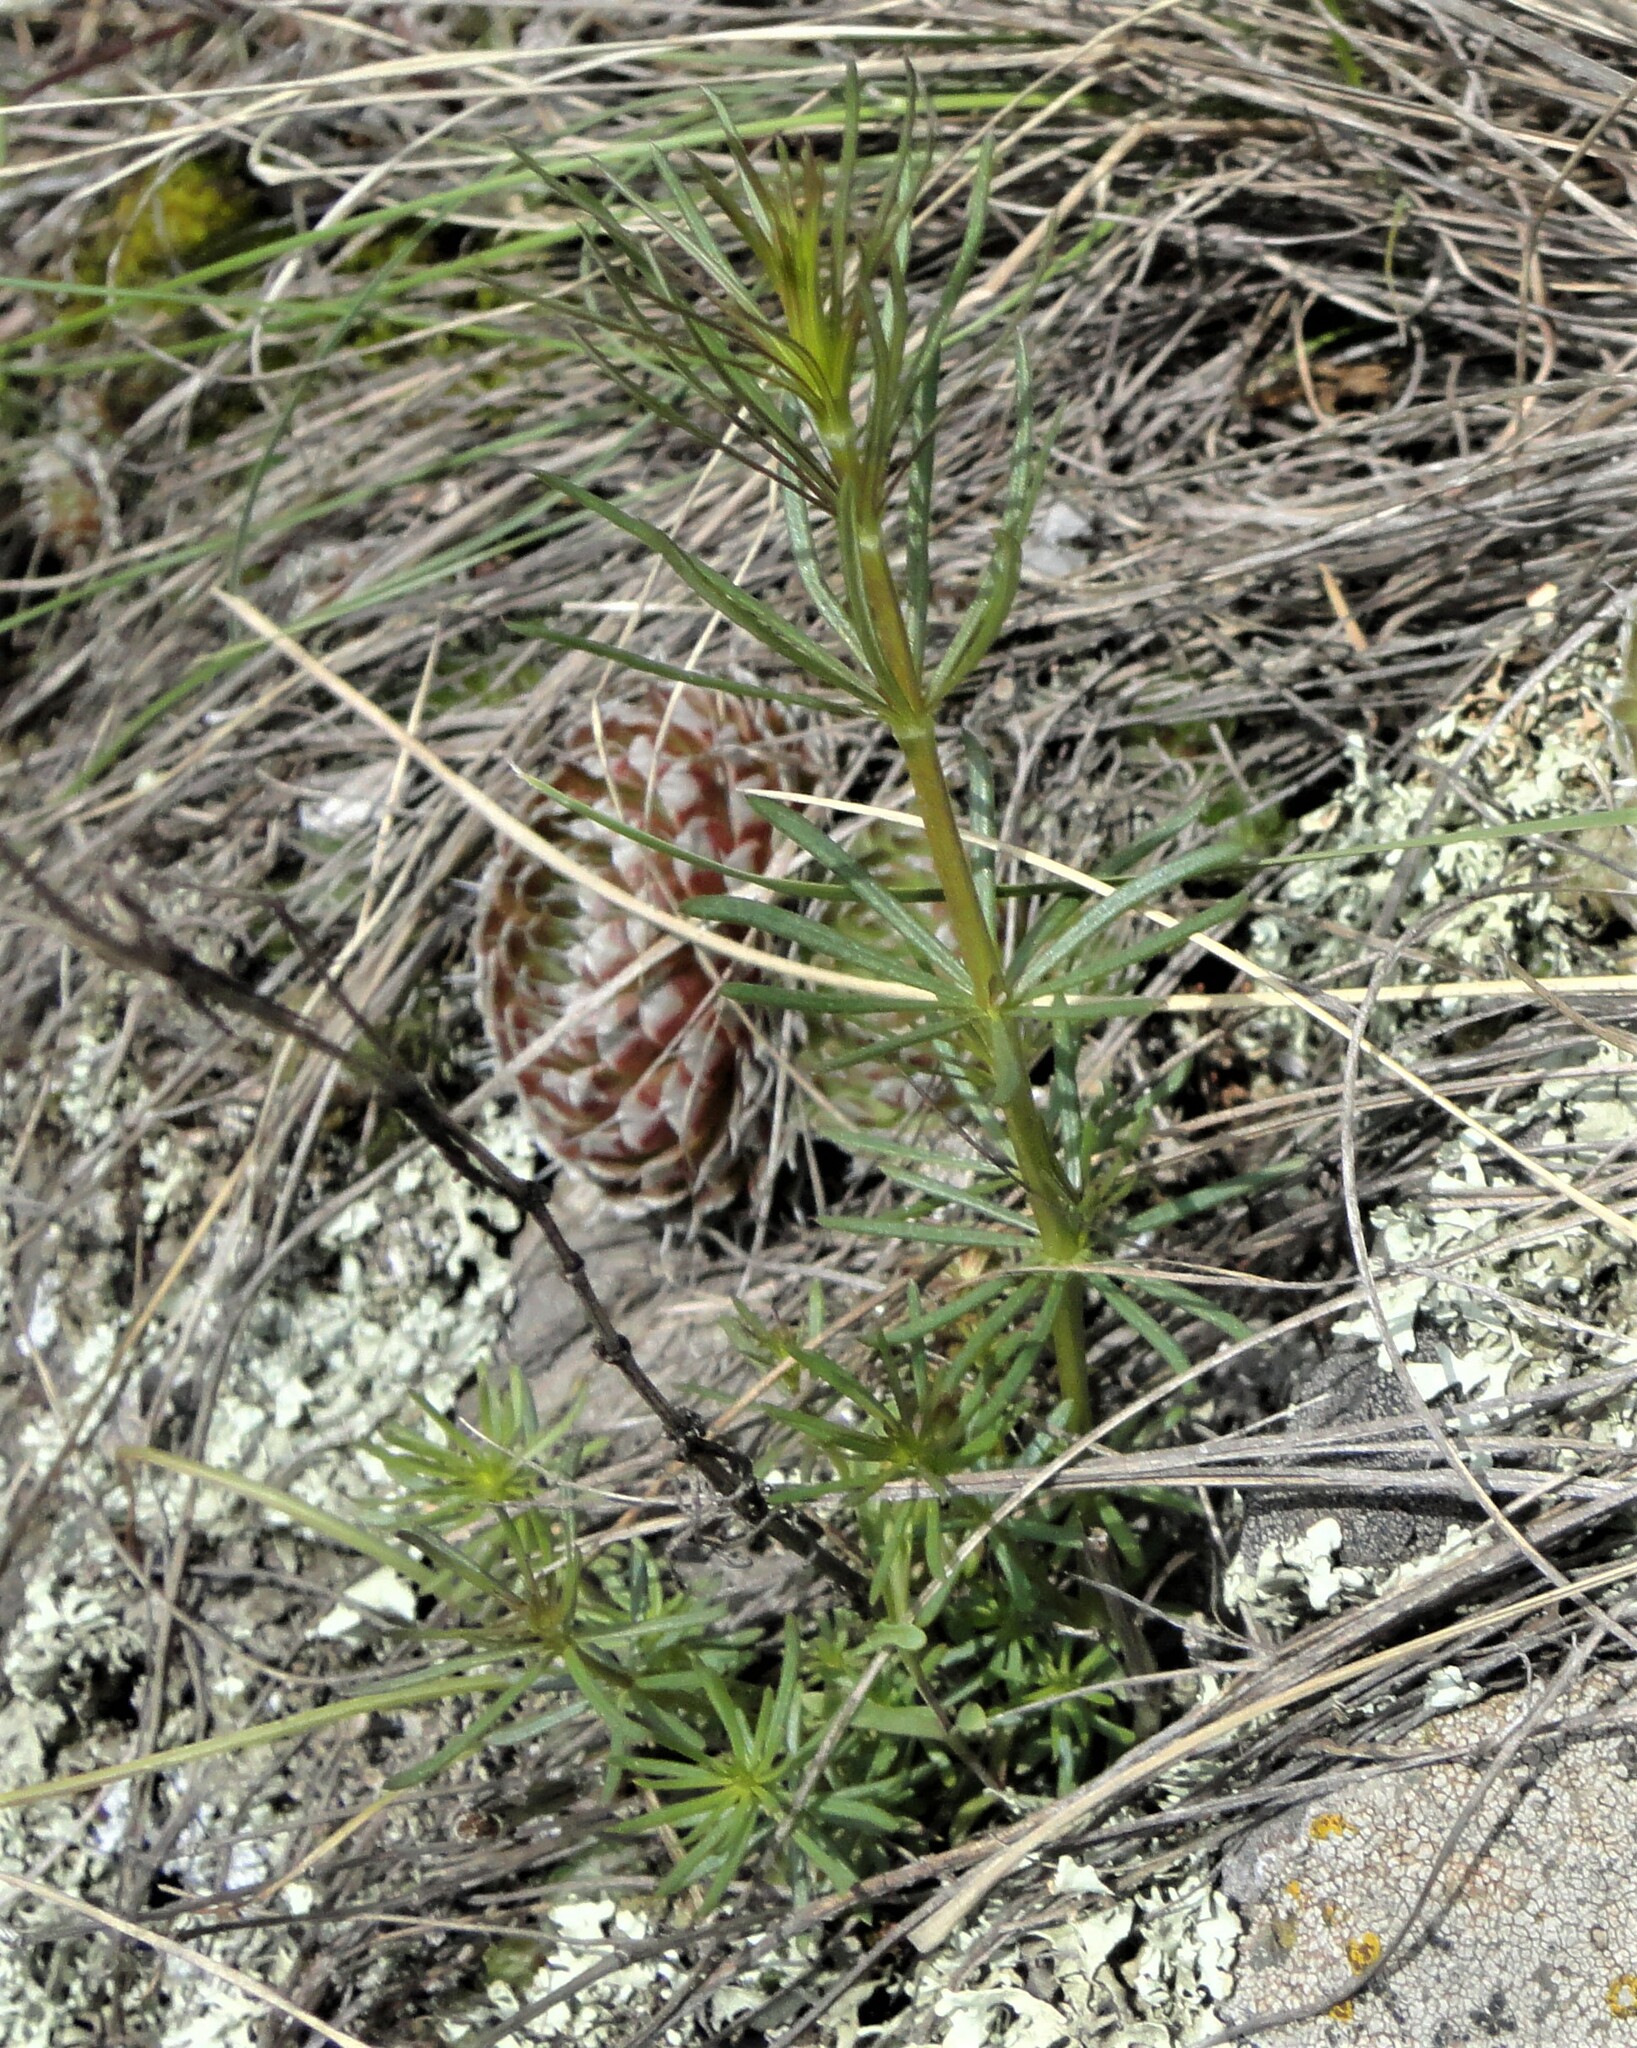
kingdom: Plantae
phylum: Tracheophyta
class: Magnoliopsida
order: Gentianales
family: Rubiaceae
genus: Galium
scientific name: Galium verum
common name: Lady's bedstraw
